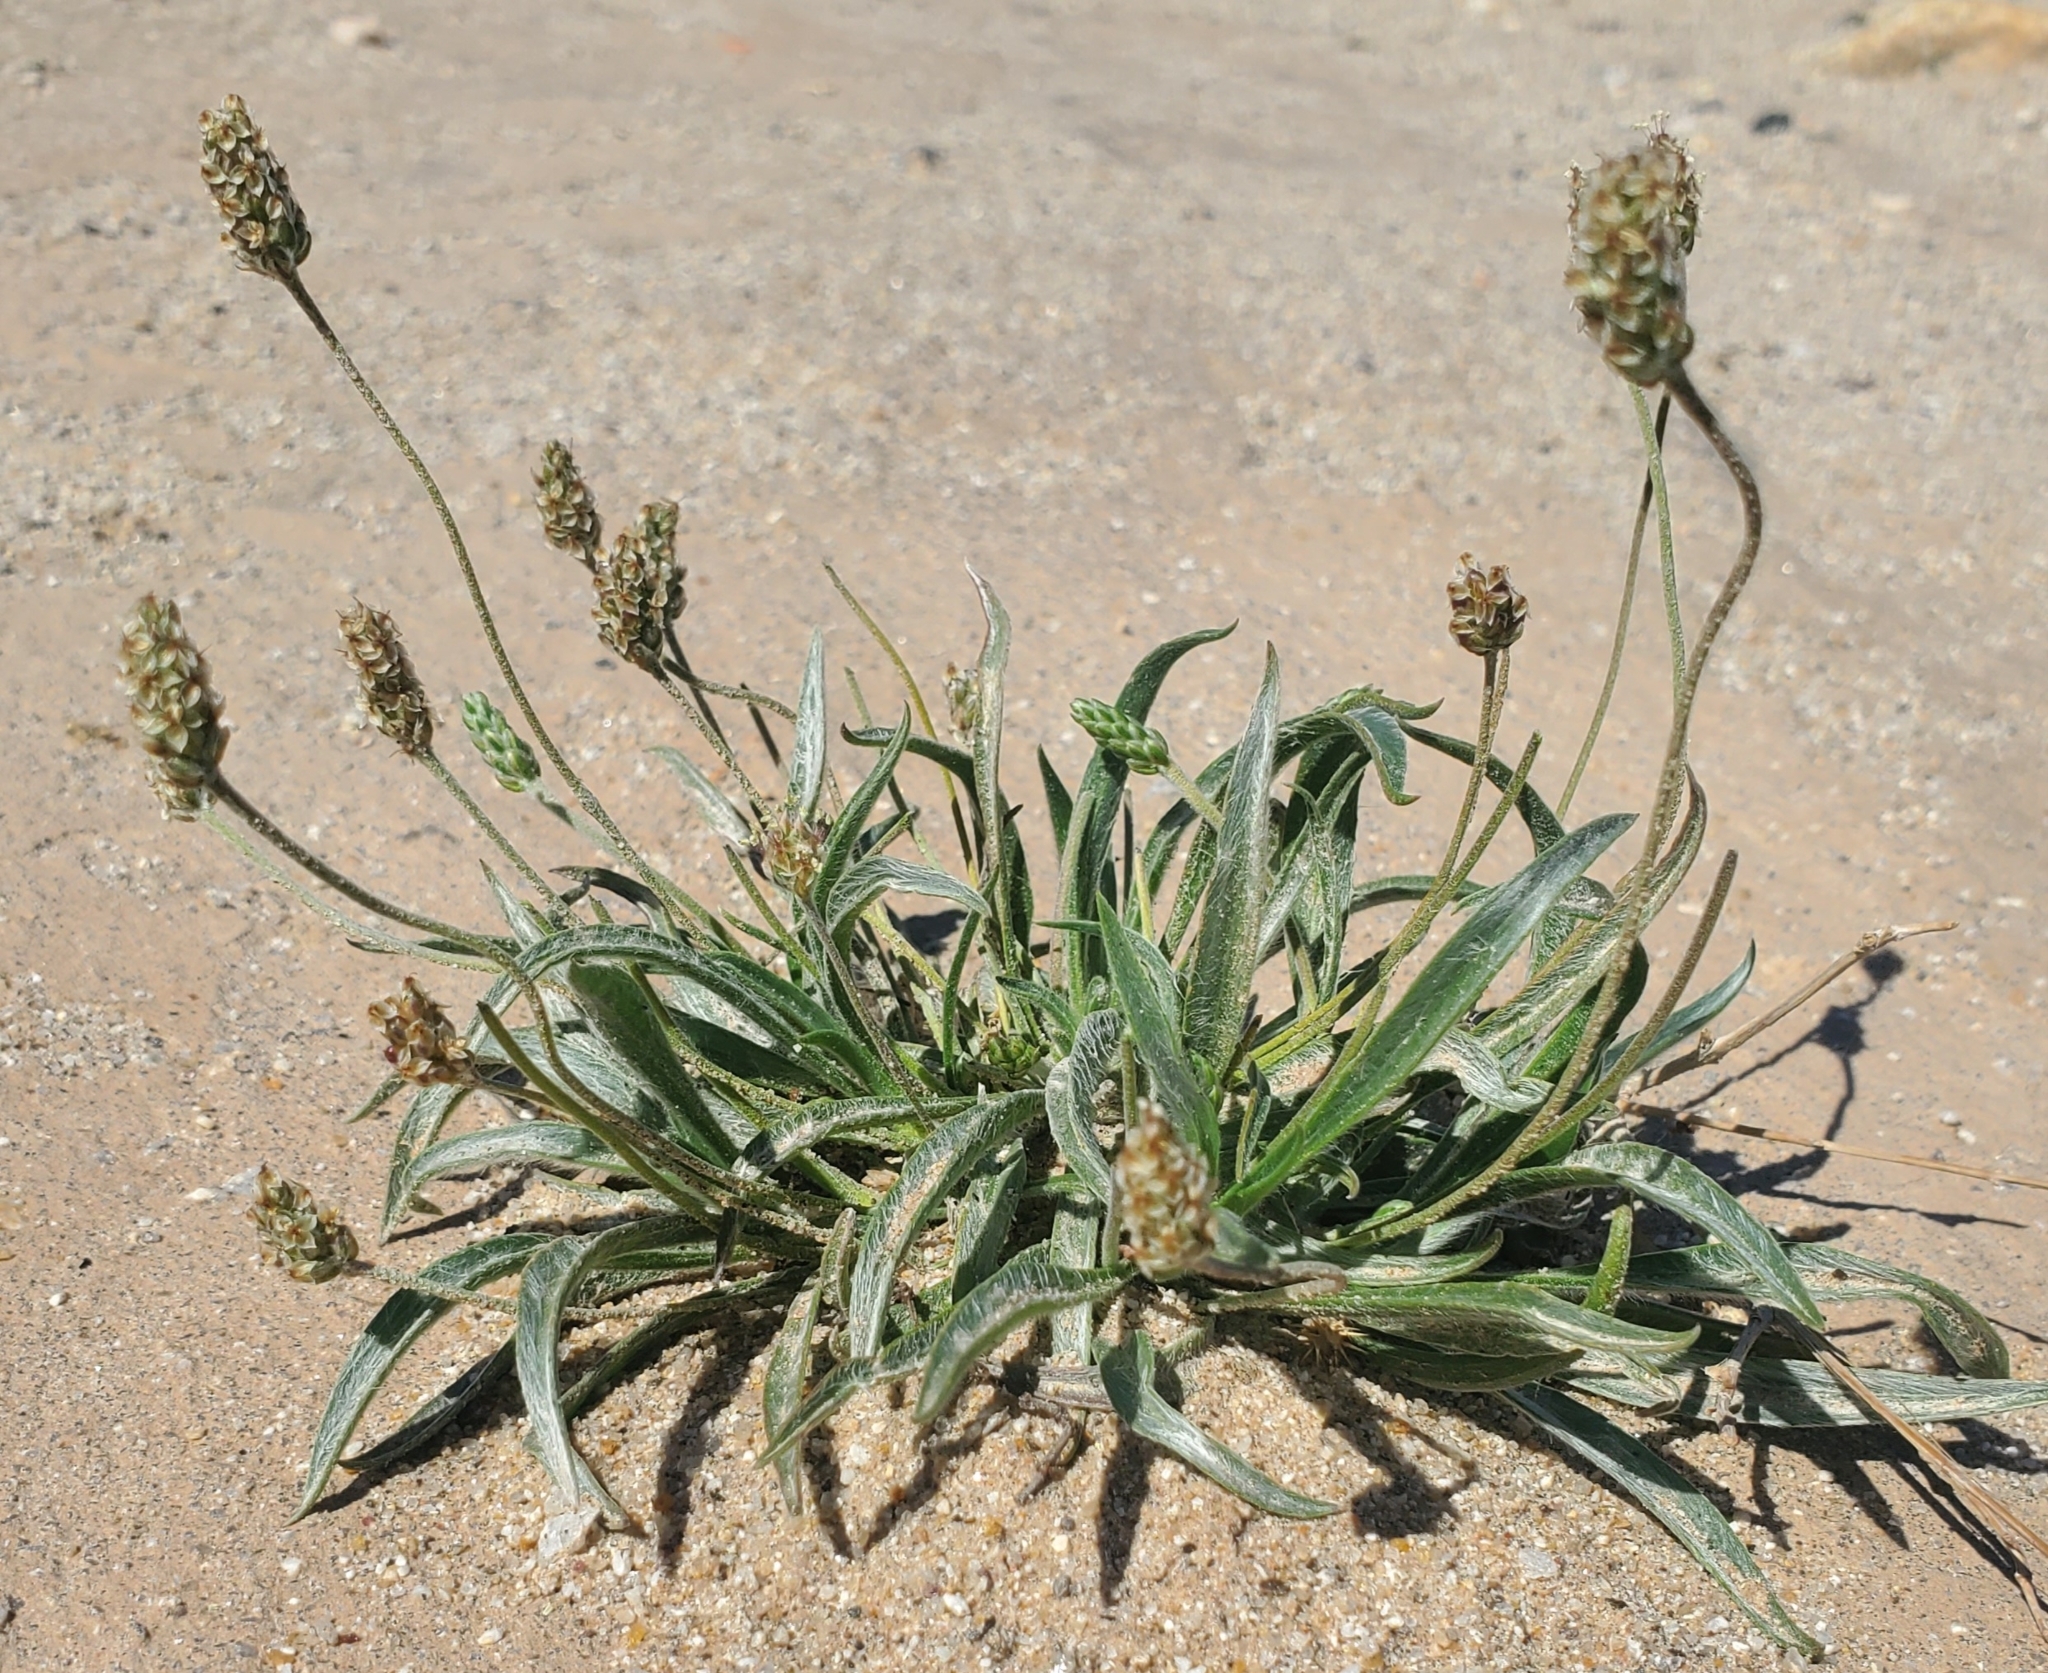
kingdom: Plantae
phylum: Tracheophyta
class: Magnoliopsida
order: Lamiales
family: Plantaginaceae
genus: Plantago
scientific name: Plantago ovata
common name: Blond plantain
